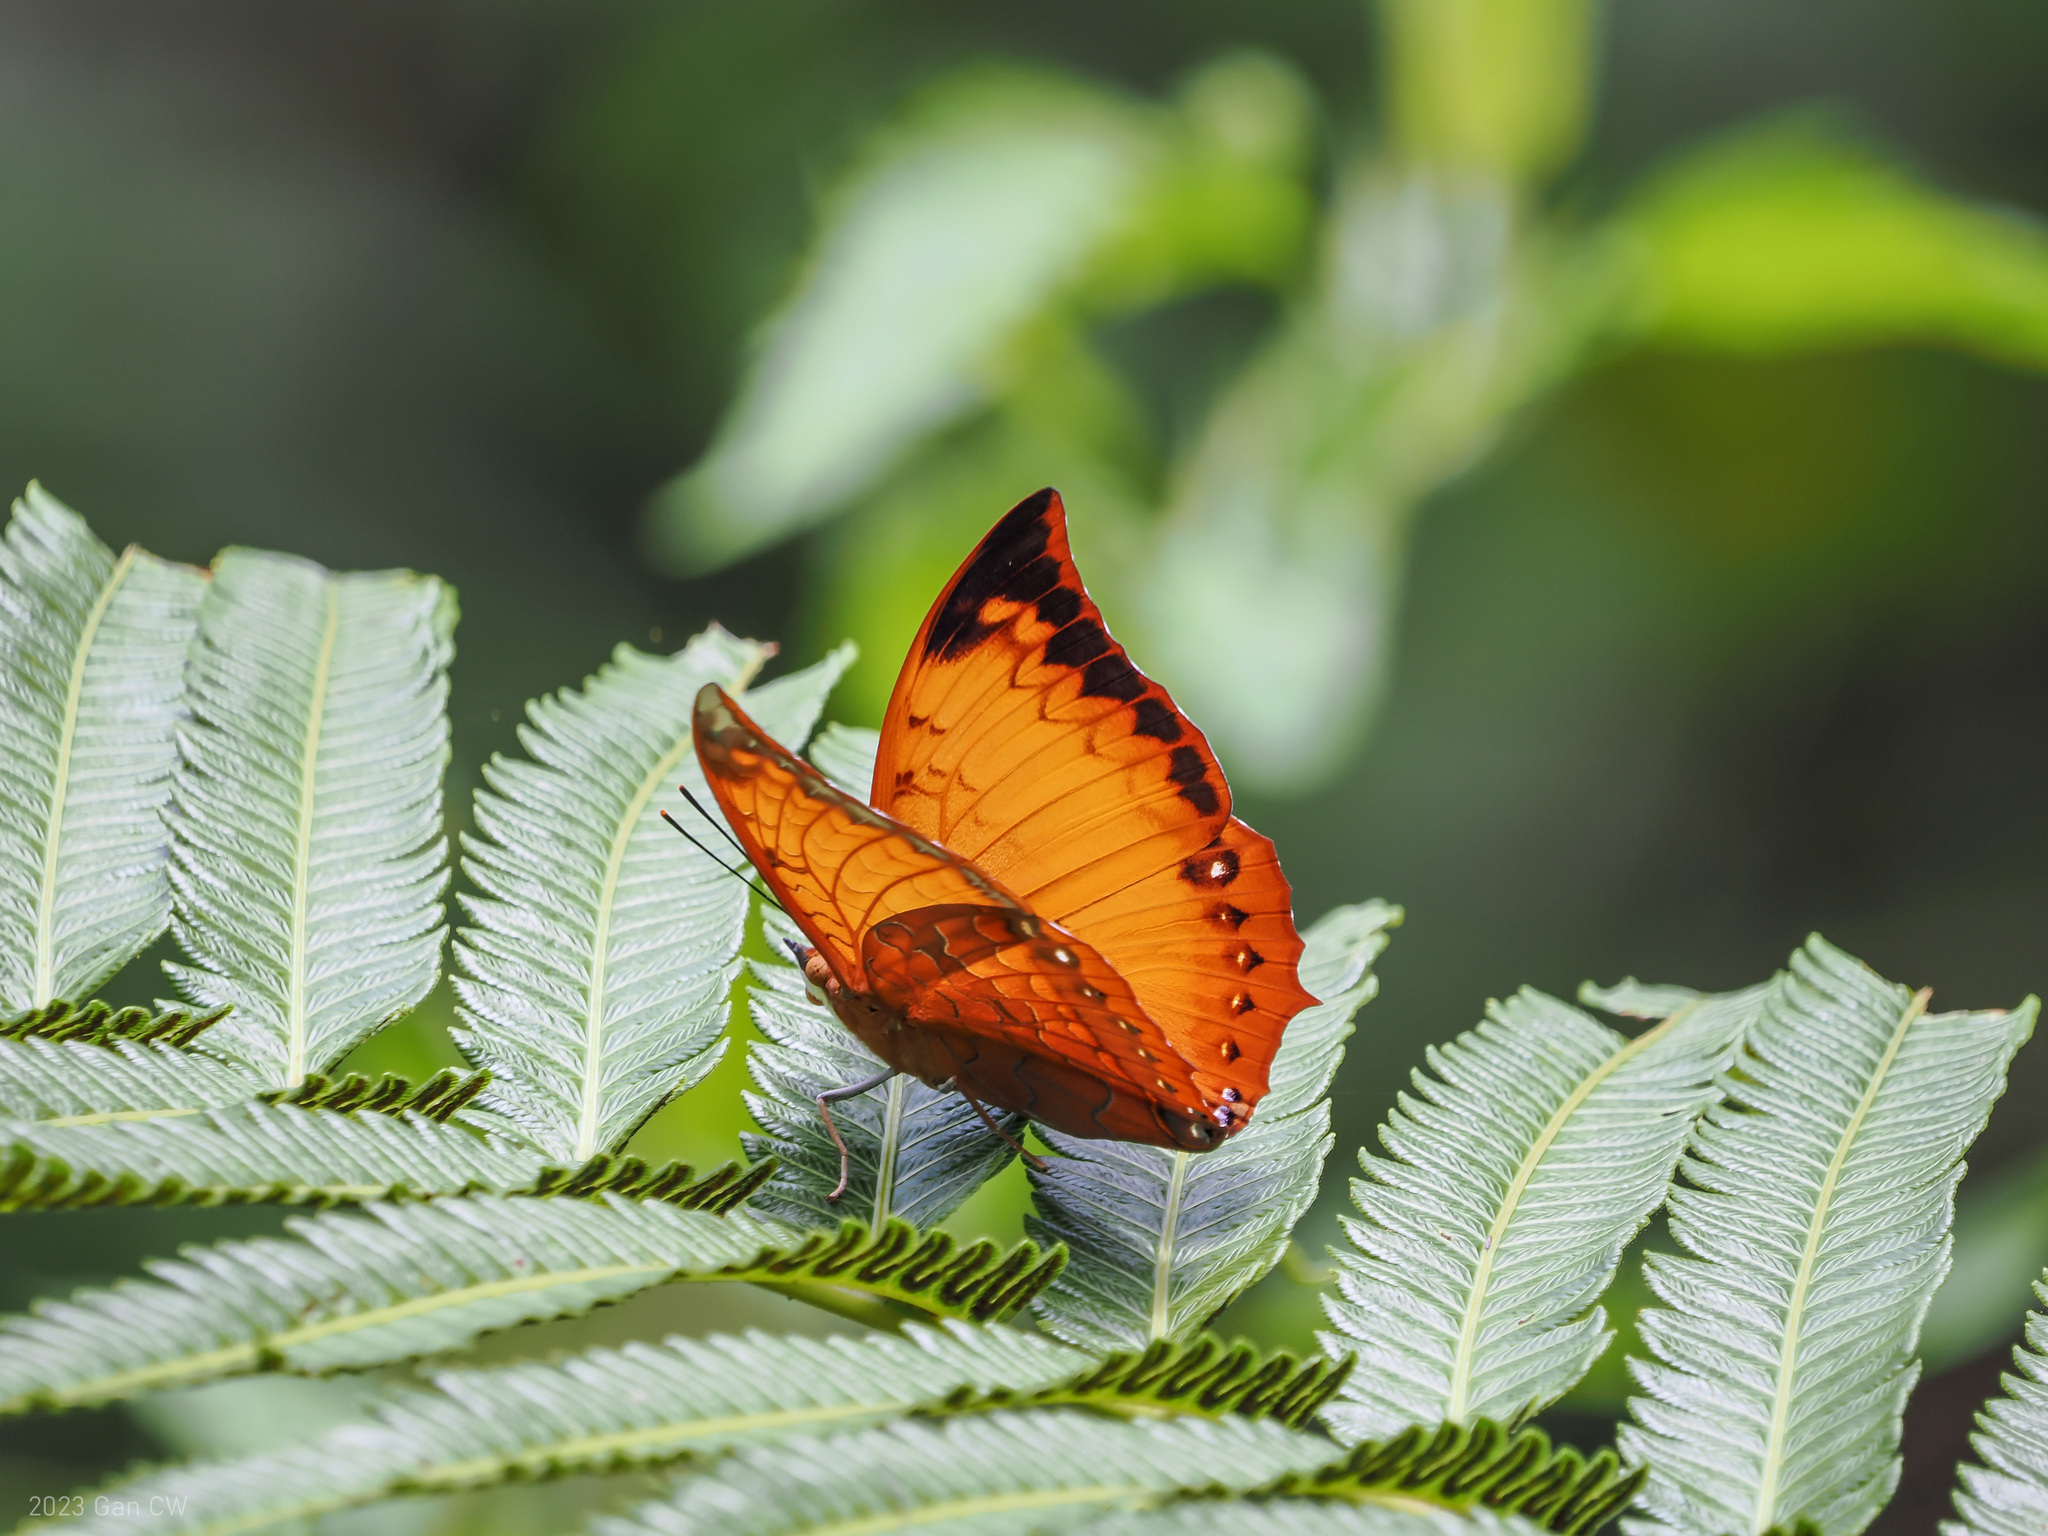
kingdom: Animalia
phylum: Arthropoda
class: Insecta
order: Lepidoptera
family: Nymphalidae
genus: Charaxes
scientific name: Charaxes harmodius
